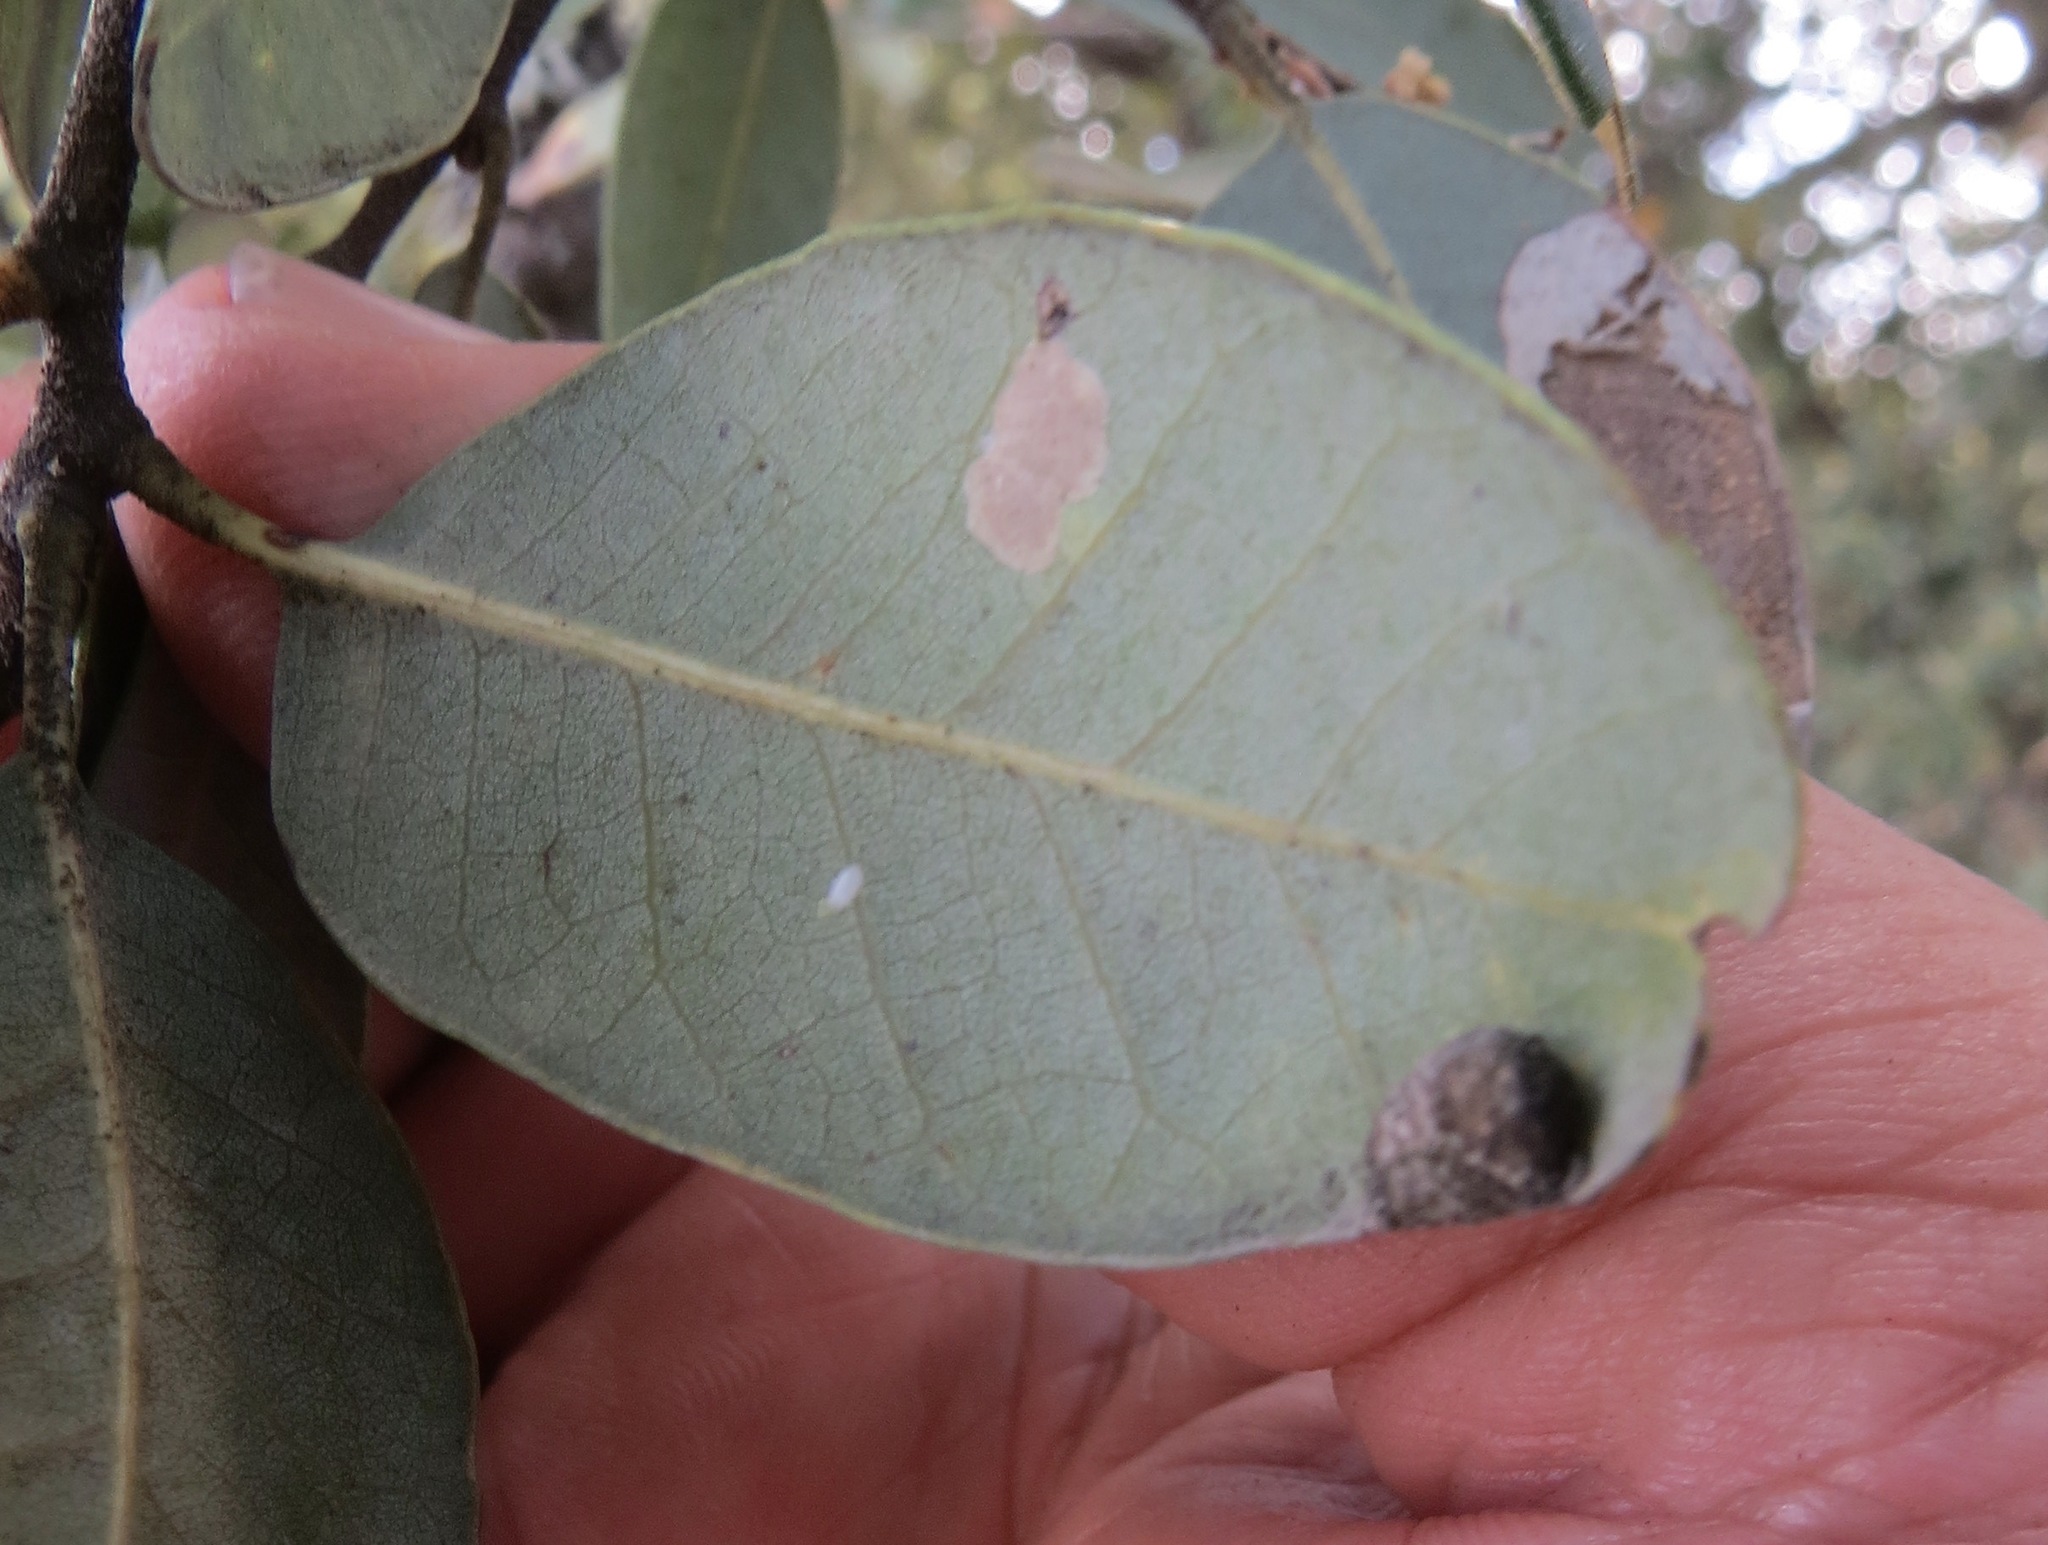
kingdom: Animalia
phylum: Arthropoda
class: Insecta
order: Diptera
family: Cecidomyiidae
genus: Dasineura
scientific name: Dasineura silvestrii
